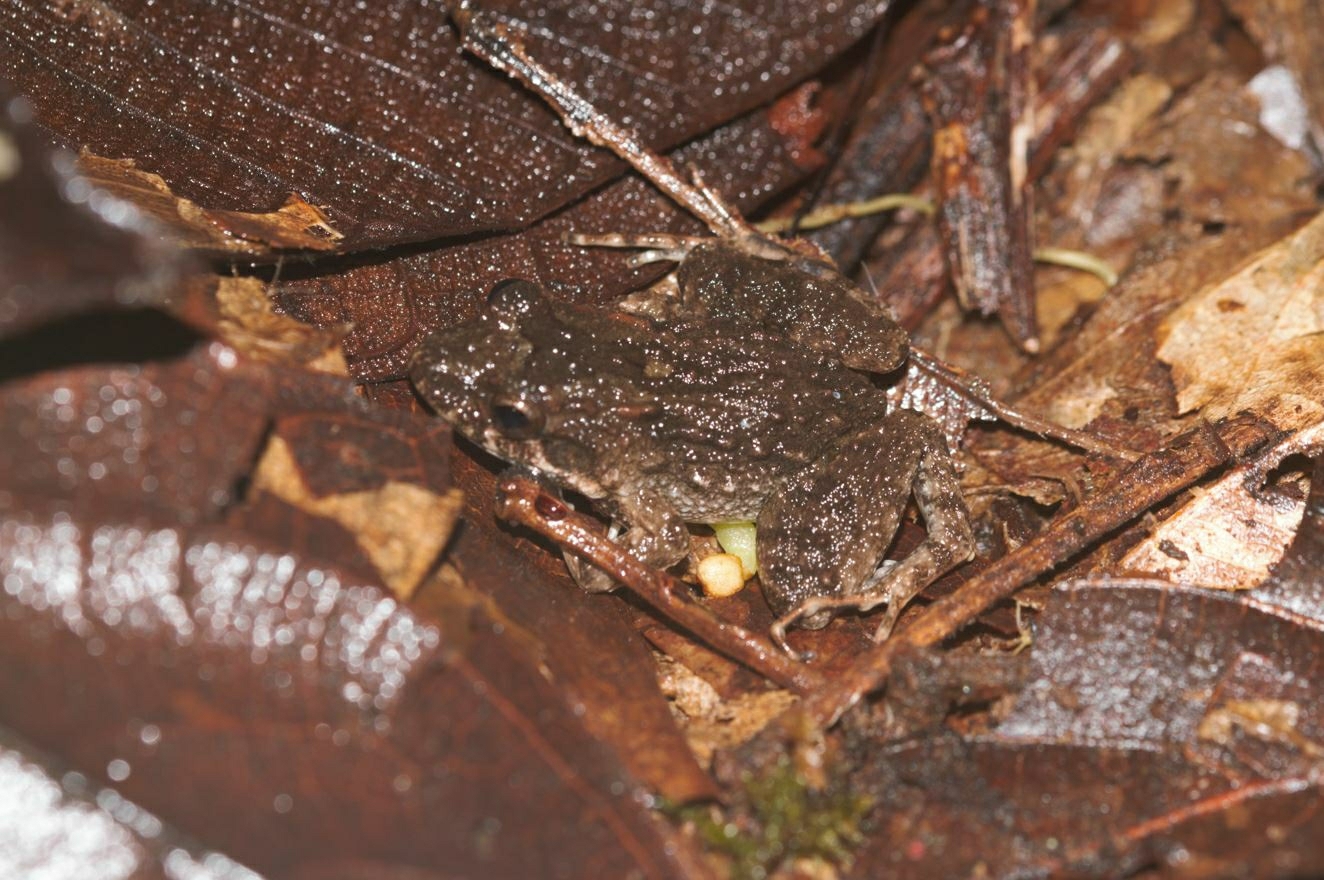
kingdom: Animalia
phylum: Chordata
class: Amphibia
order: Anura
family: Leptodactylidae
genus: Leptodactylus
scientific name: Leptodactylus petersii
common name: Peters' thin-toed frog
